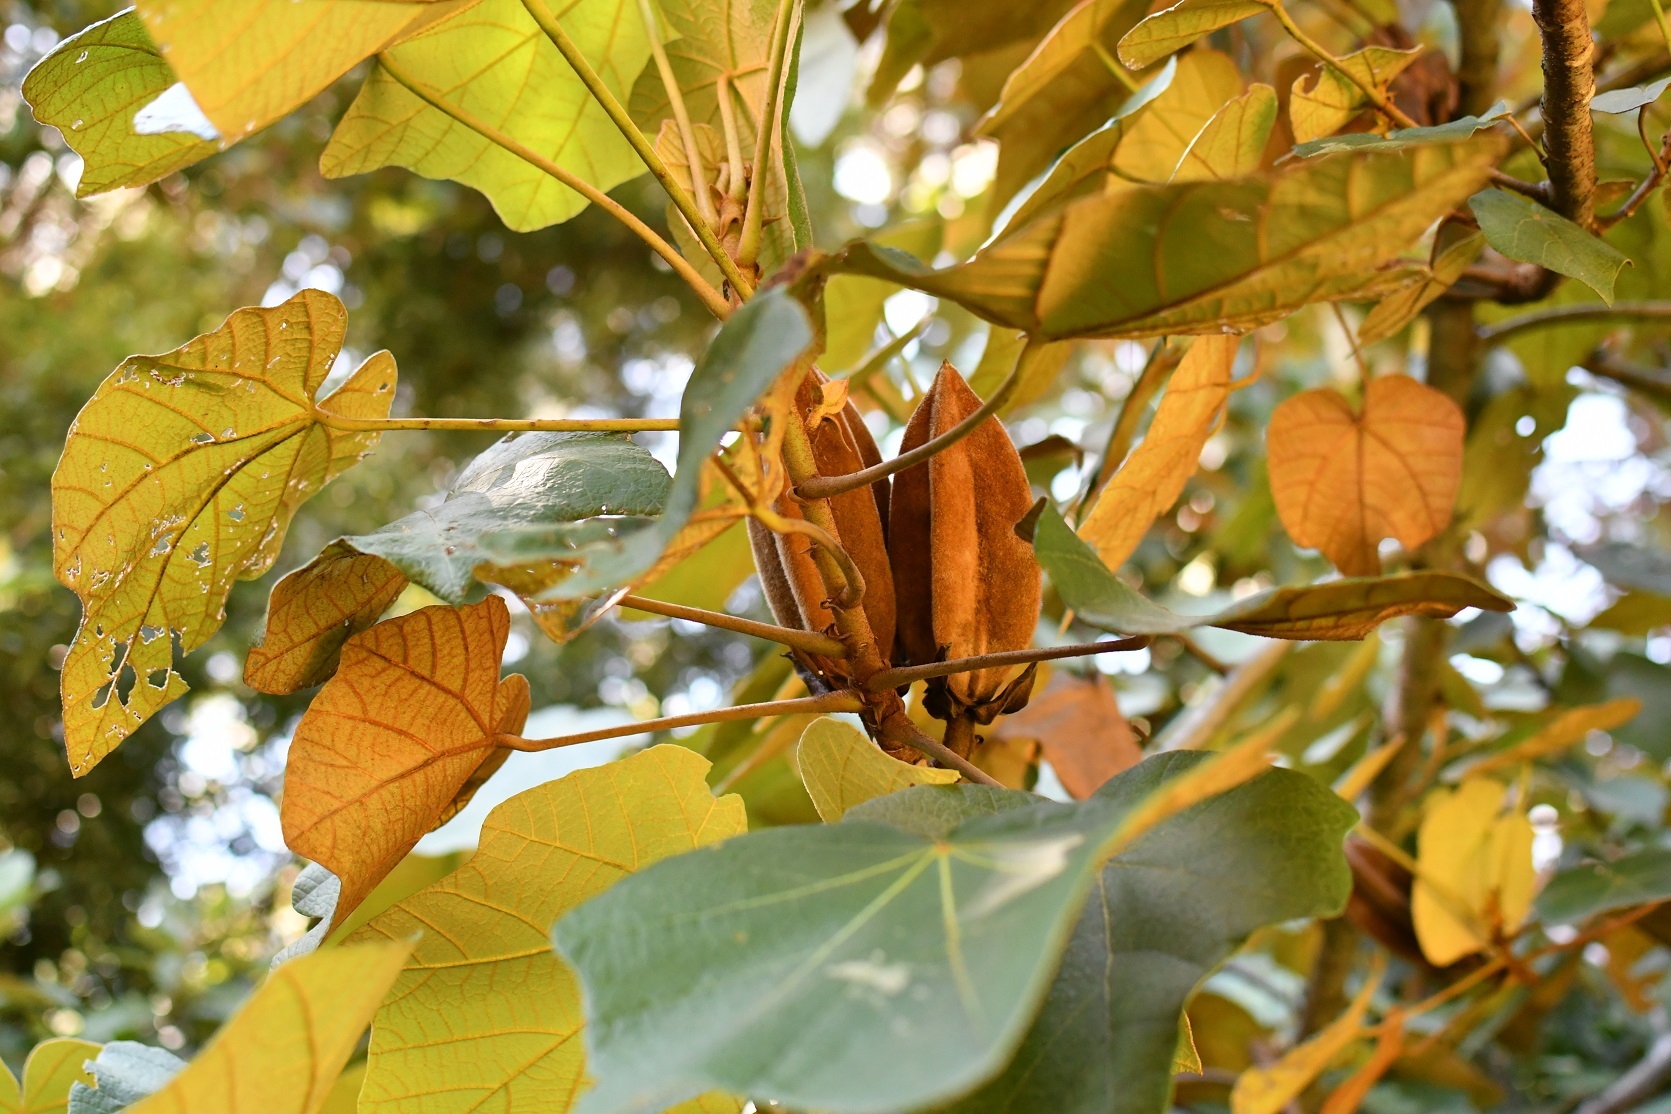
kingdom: Plantae
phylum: Tracheophyta
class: Magnoliopsida
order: Malvales
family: Malvaceae
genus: Chiranthodendron
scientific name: Chiranthodendron pentadactylon
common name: Mexican-hat-plant
